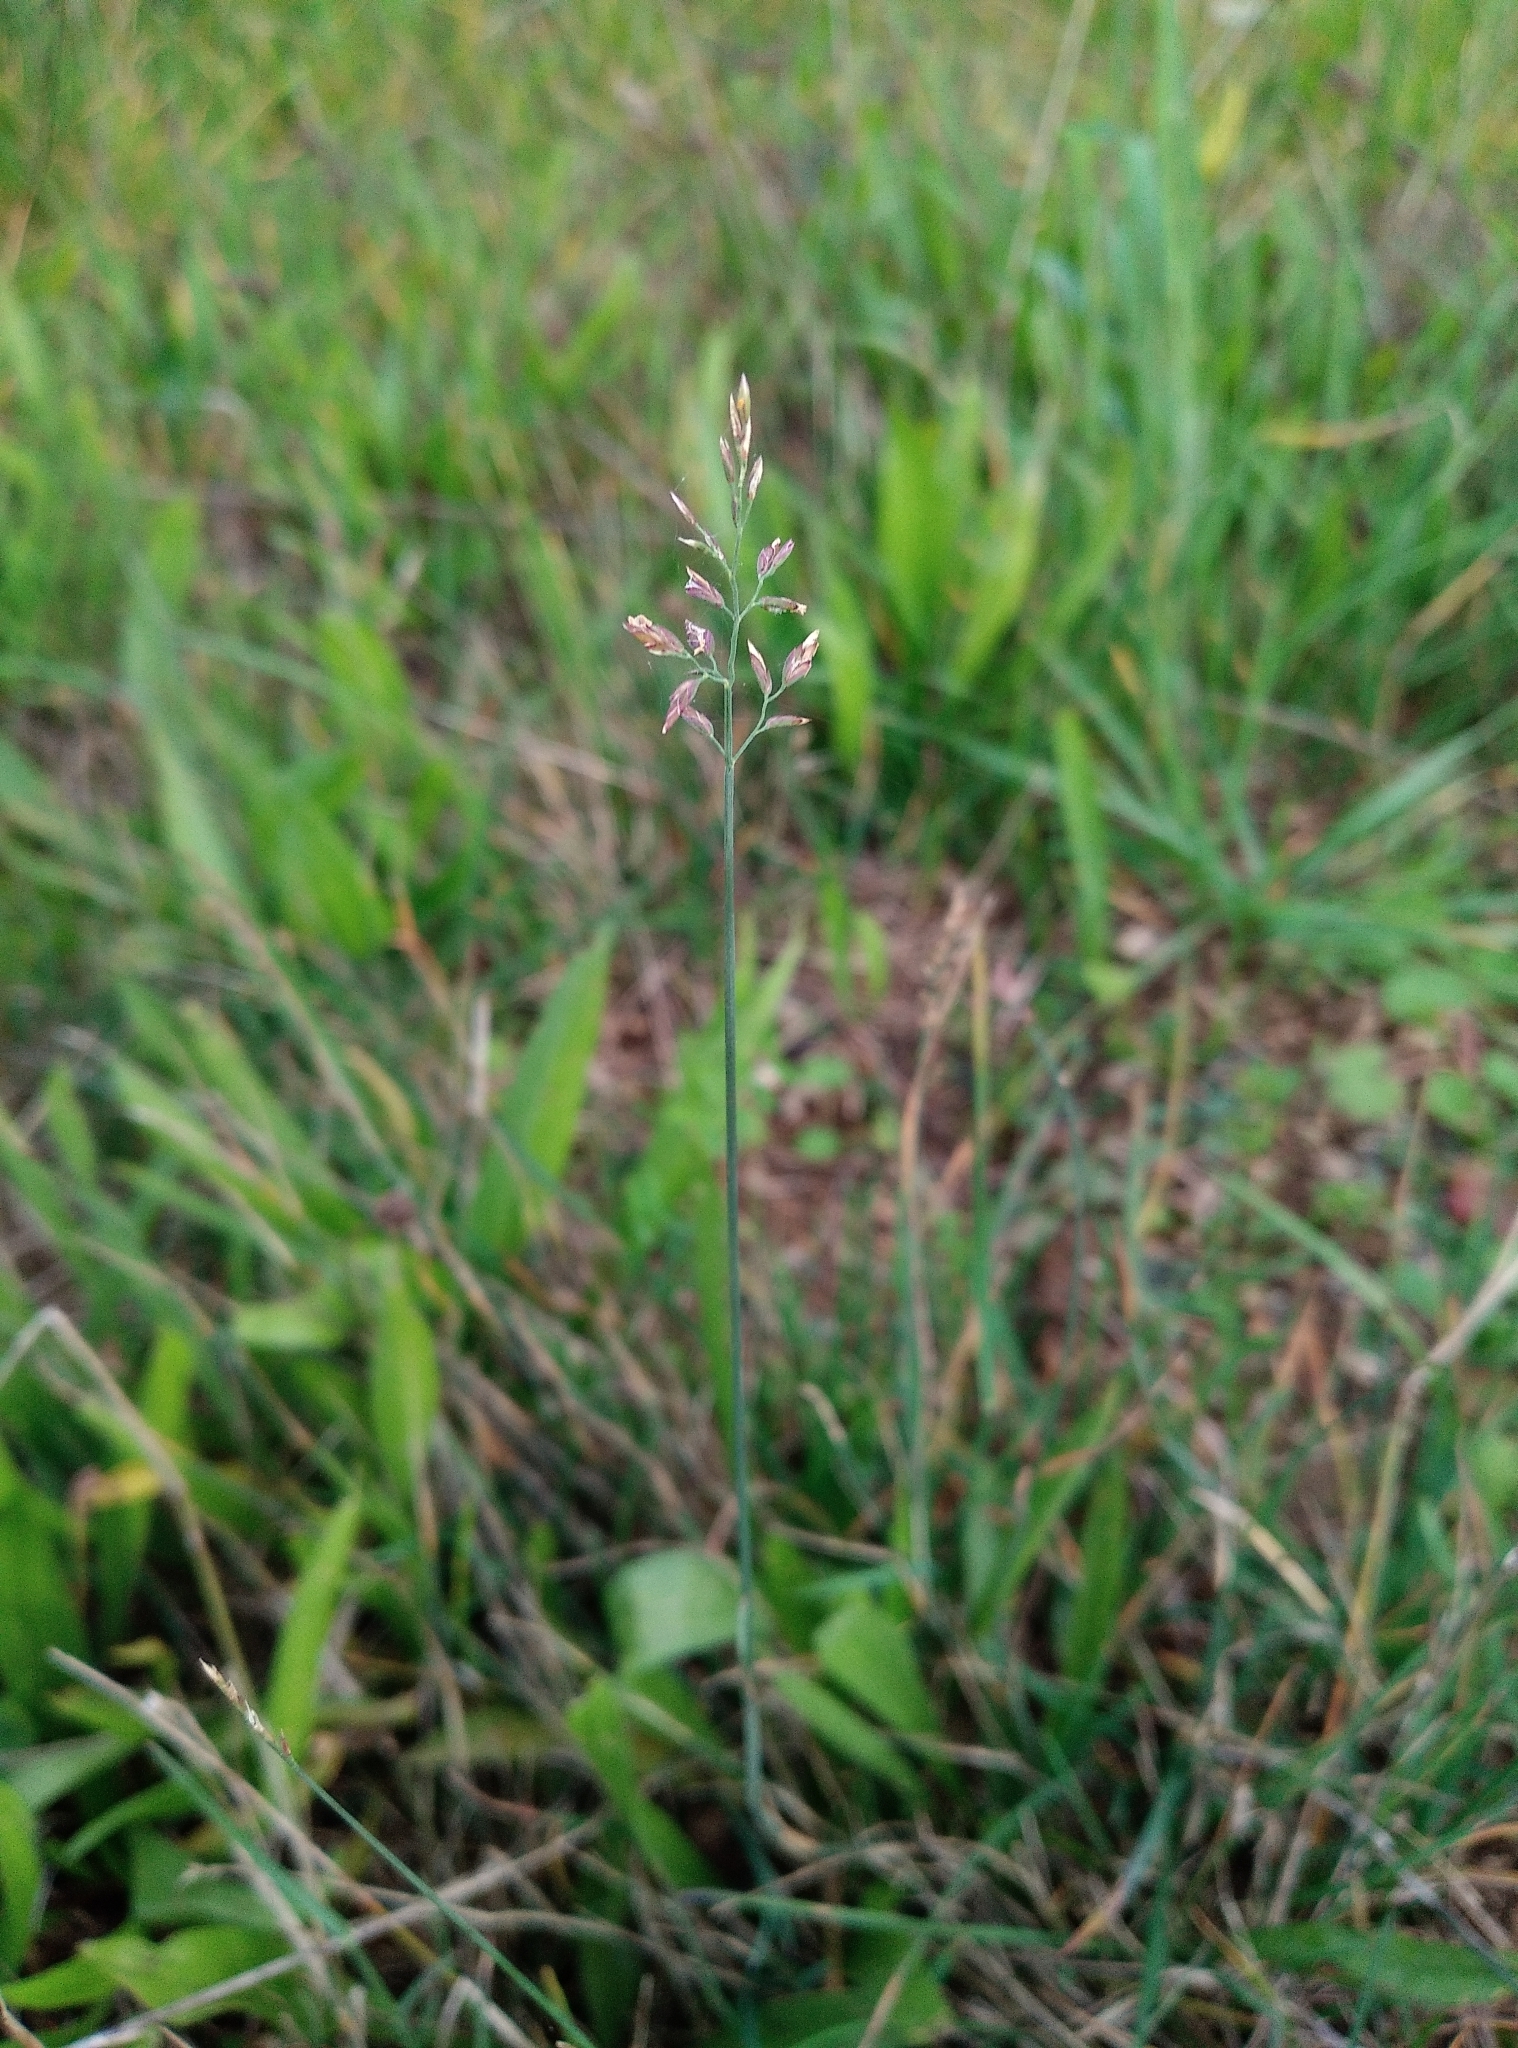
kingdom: Plantae
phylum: Tracheophyta
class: Liliopsida
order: Poales
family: Poaceae
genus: Poa
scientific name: Poa compressa
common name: Canada bluegrass
